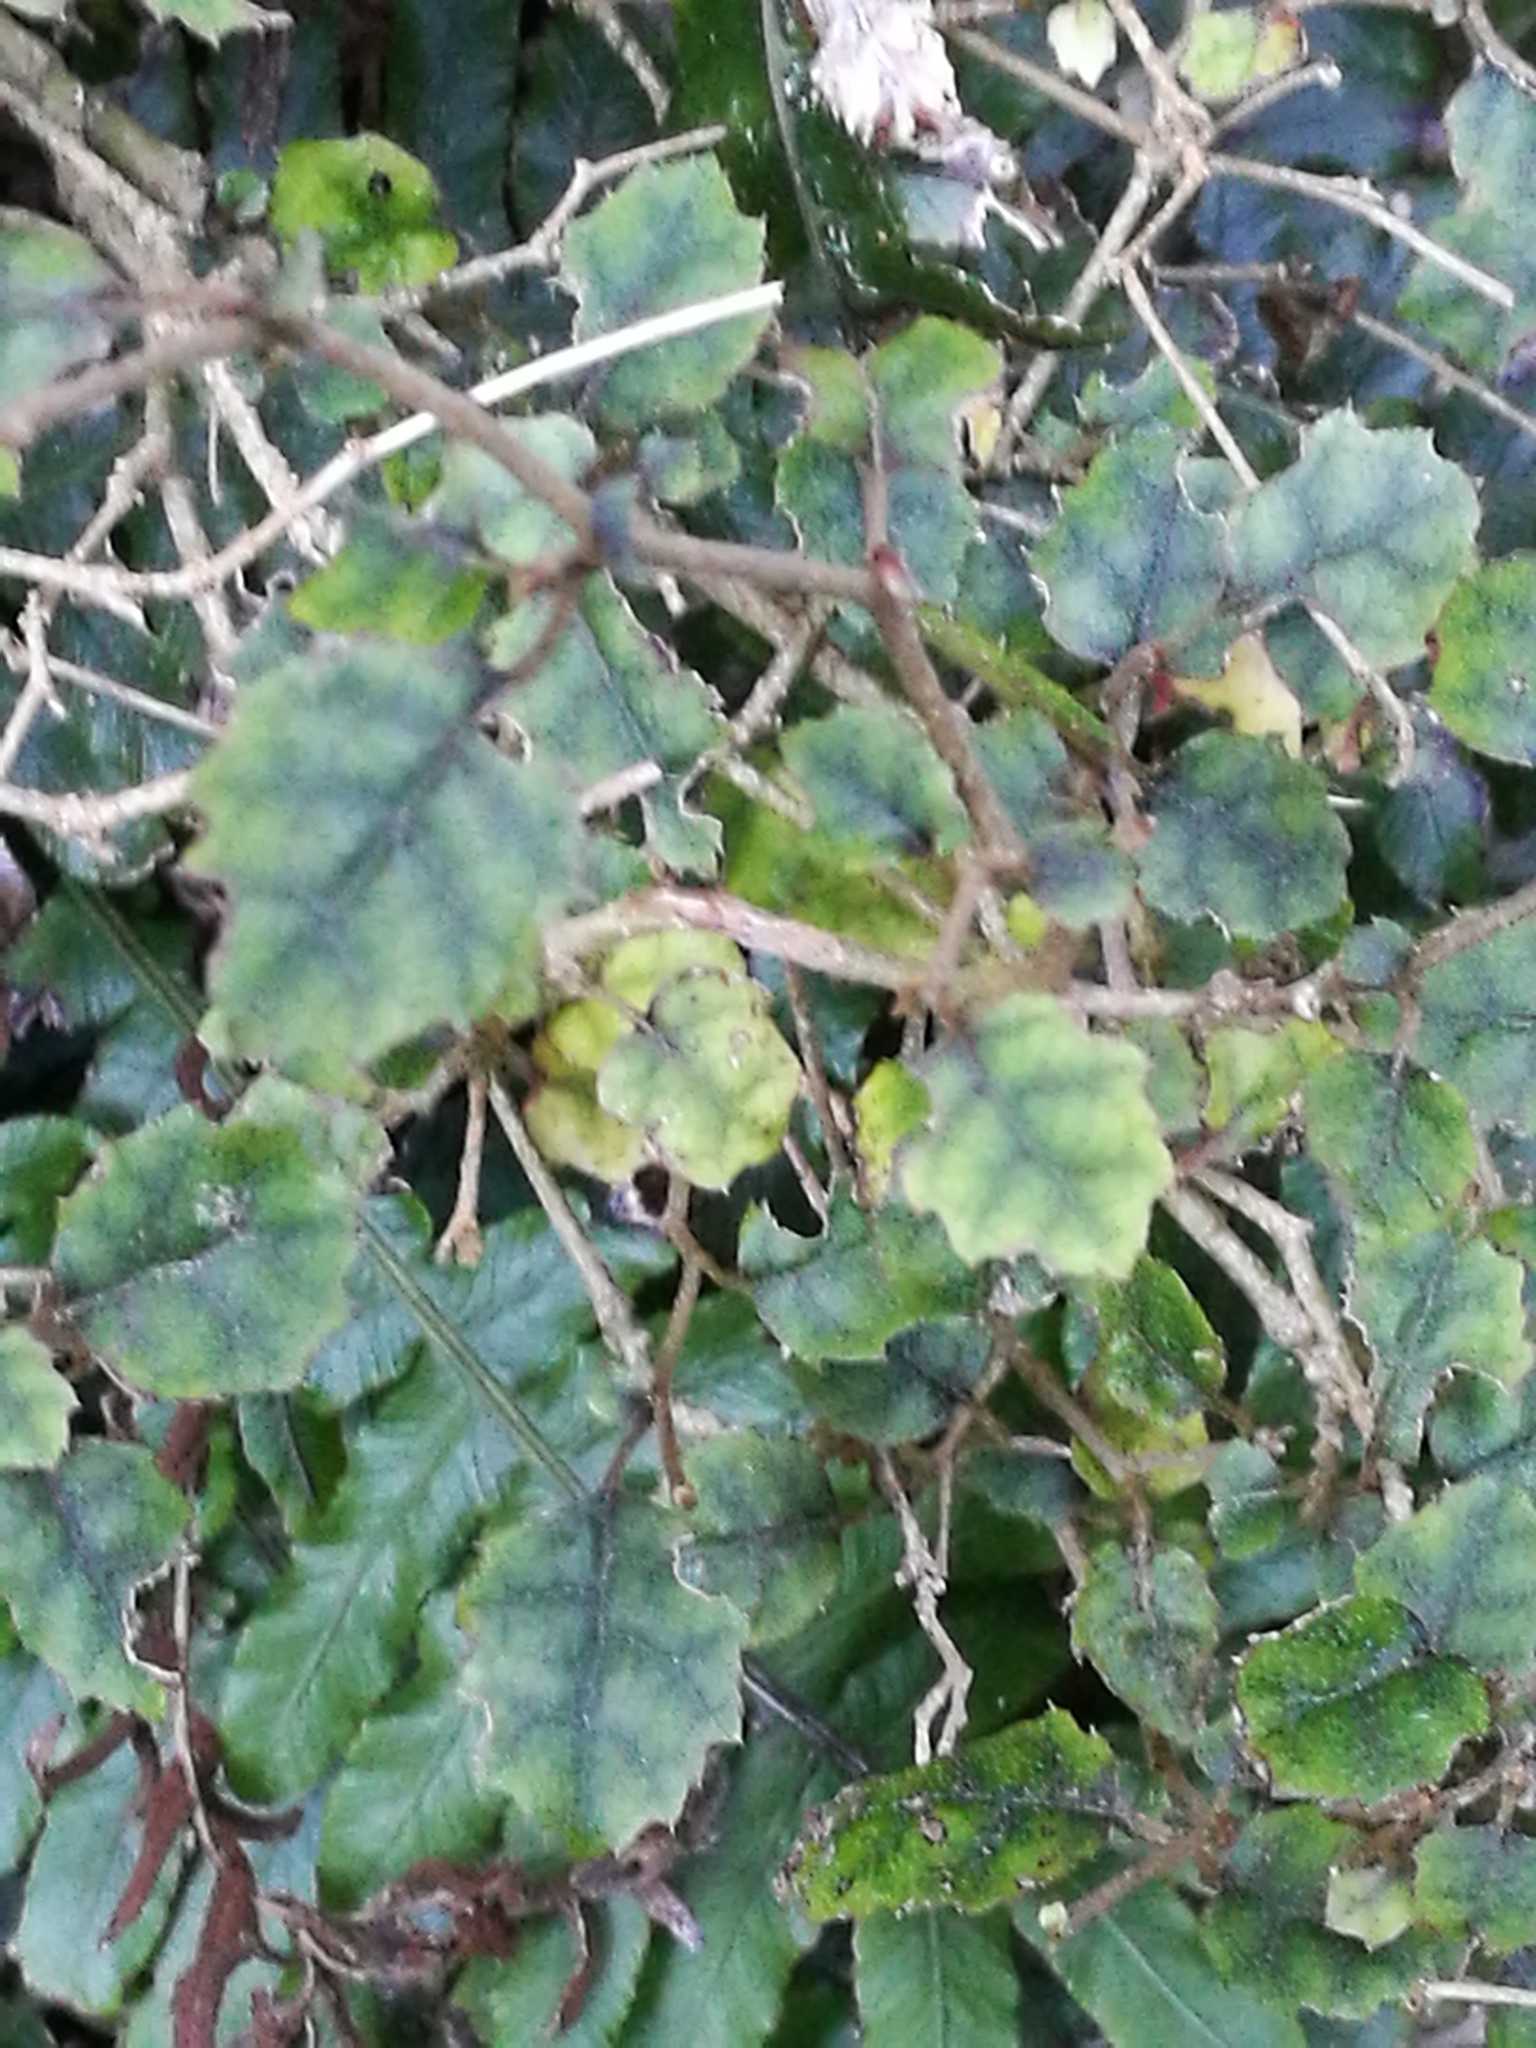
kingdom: Plantae
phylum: Tracheophyta
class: Magnoliopsida
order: Asterales
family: Rousseaceae
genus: Carpodetus
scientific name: Carpodetus serratus
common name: White mapau
